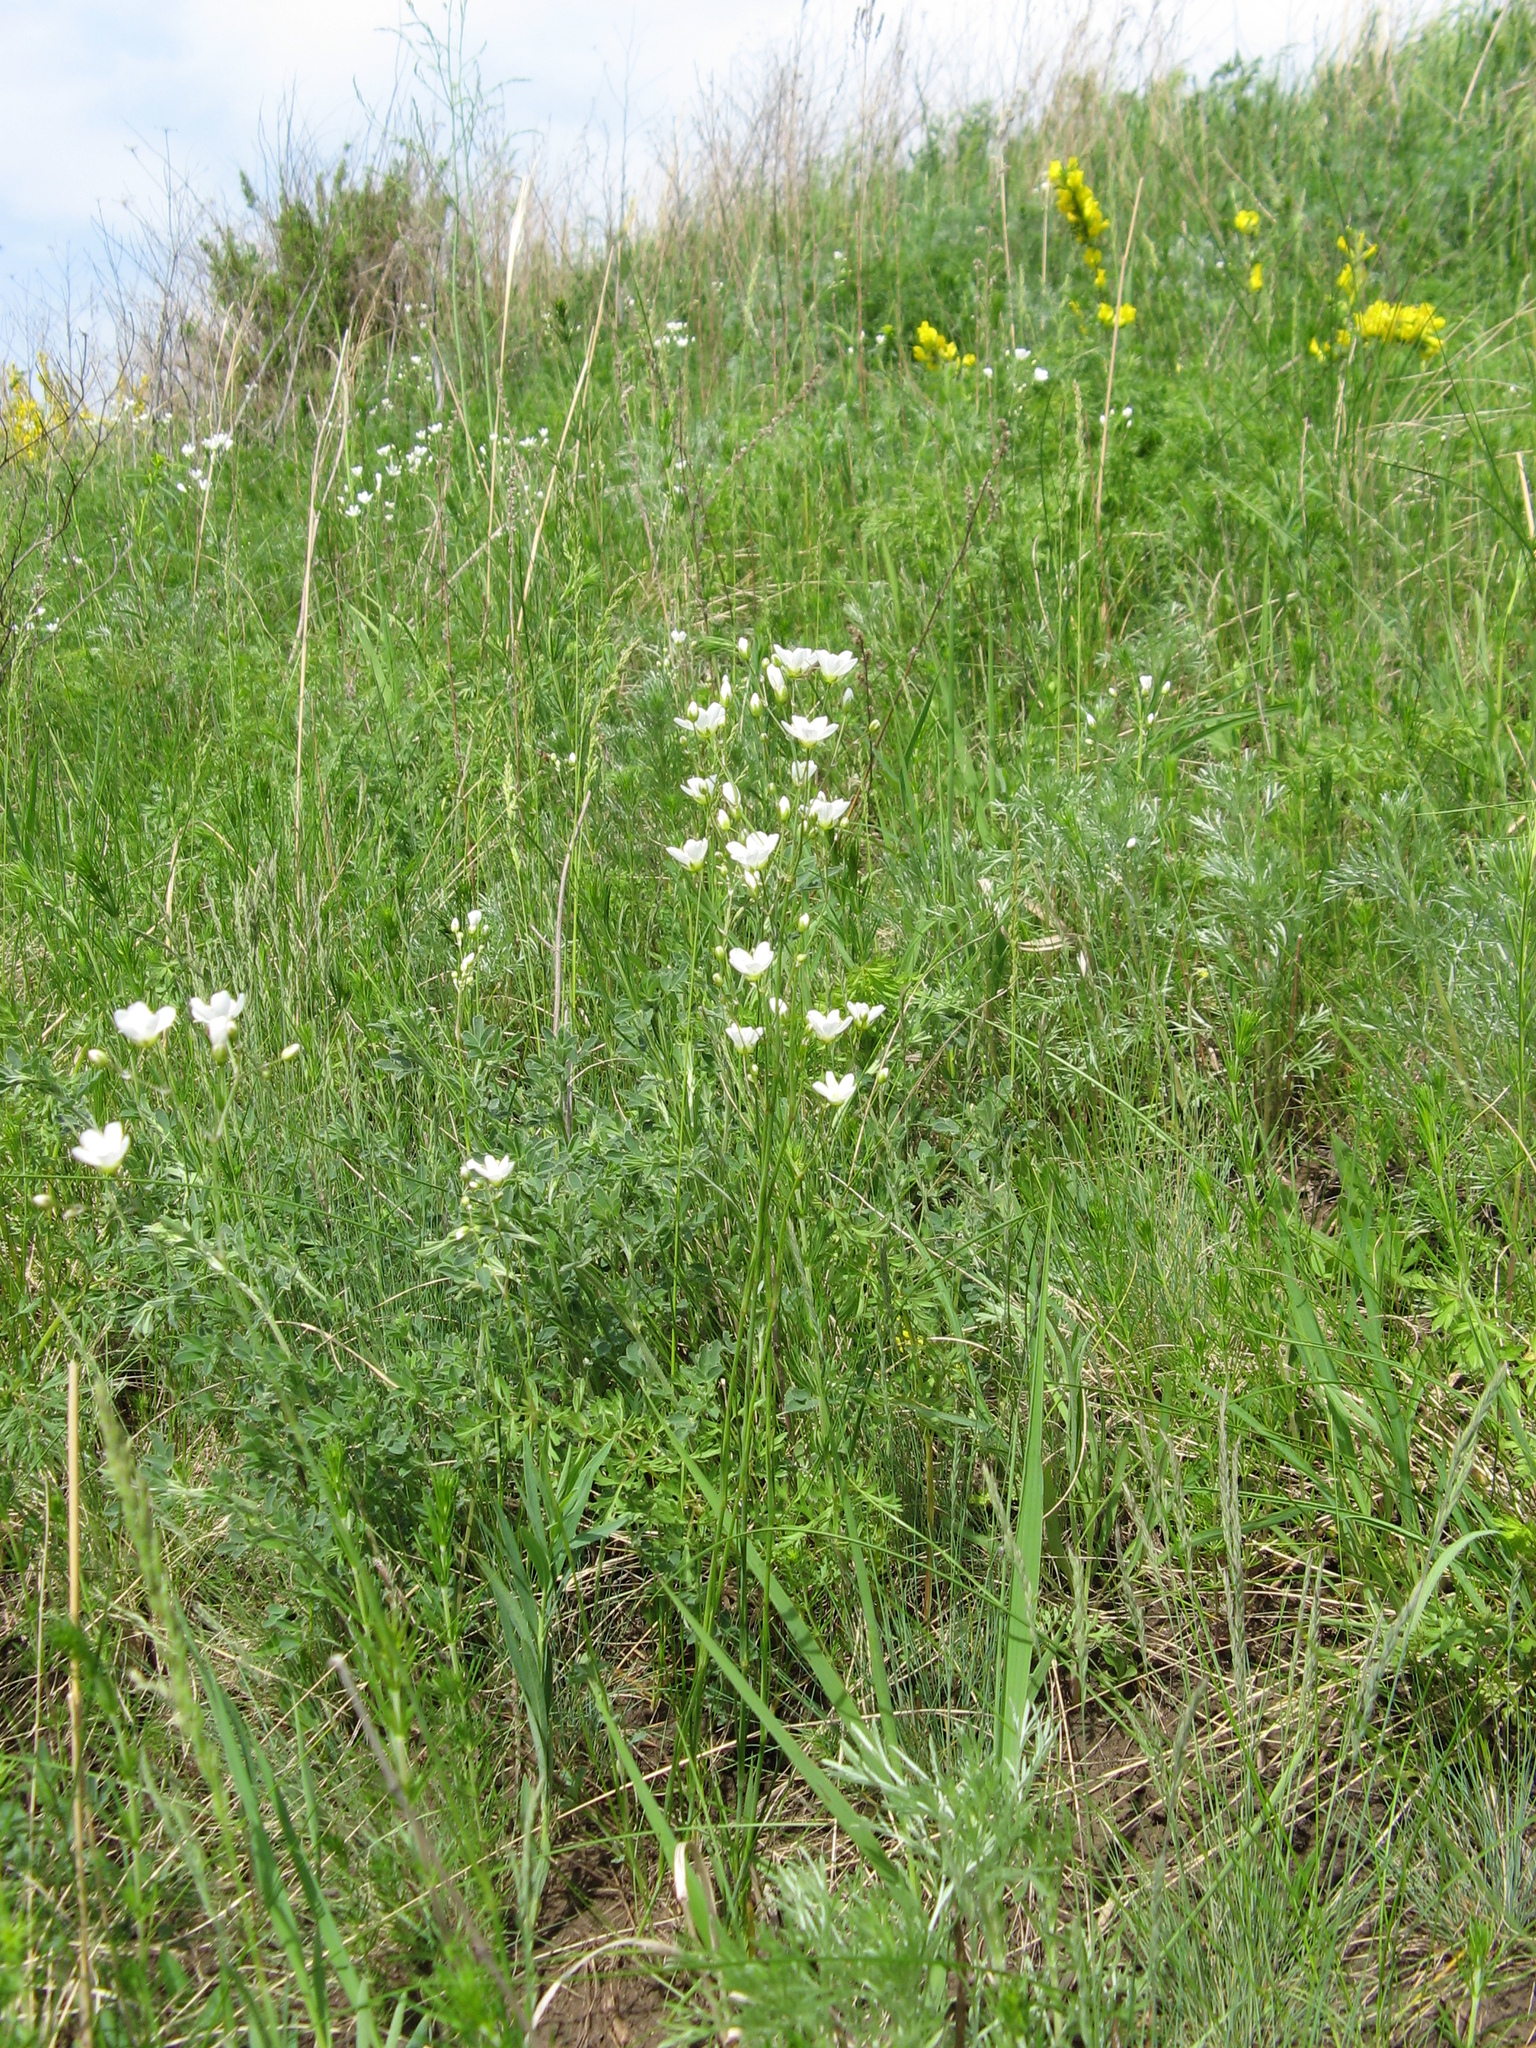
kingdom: Plantae
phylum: Tracheophyta
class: Magnoliopsida
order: Caryophyllales
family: Caryophyllaceae
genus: Eremogone
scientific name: Eremogone saxatilis
